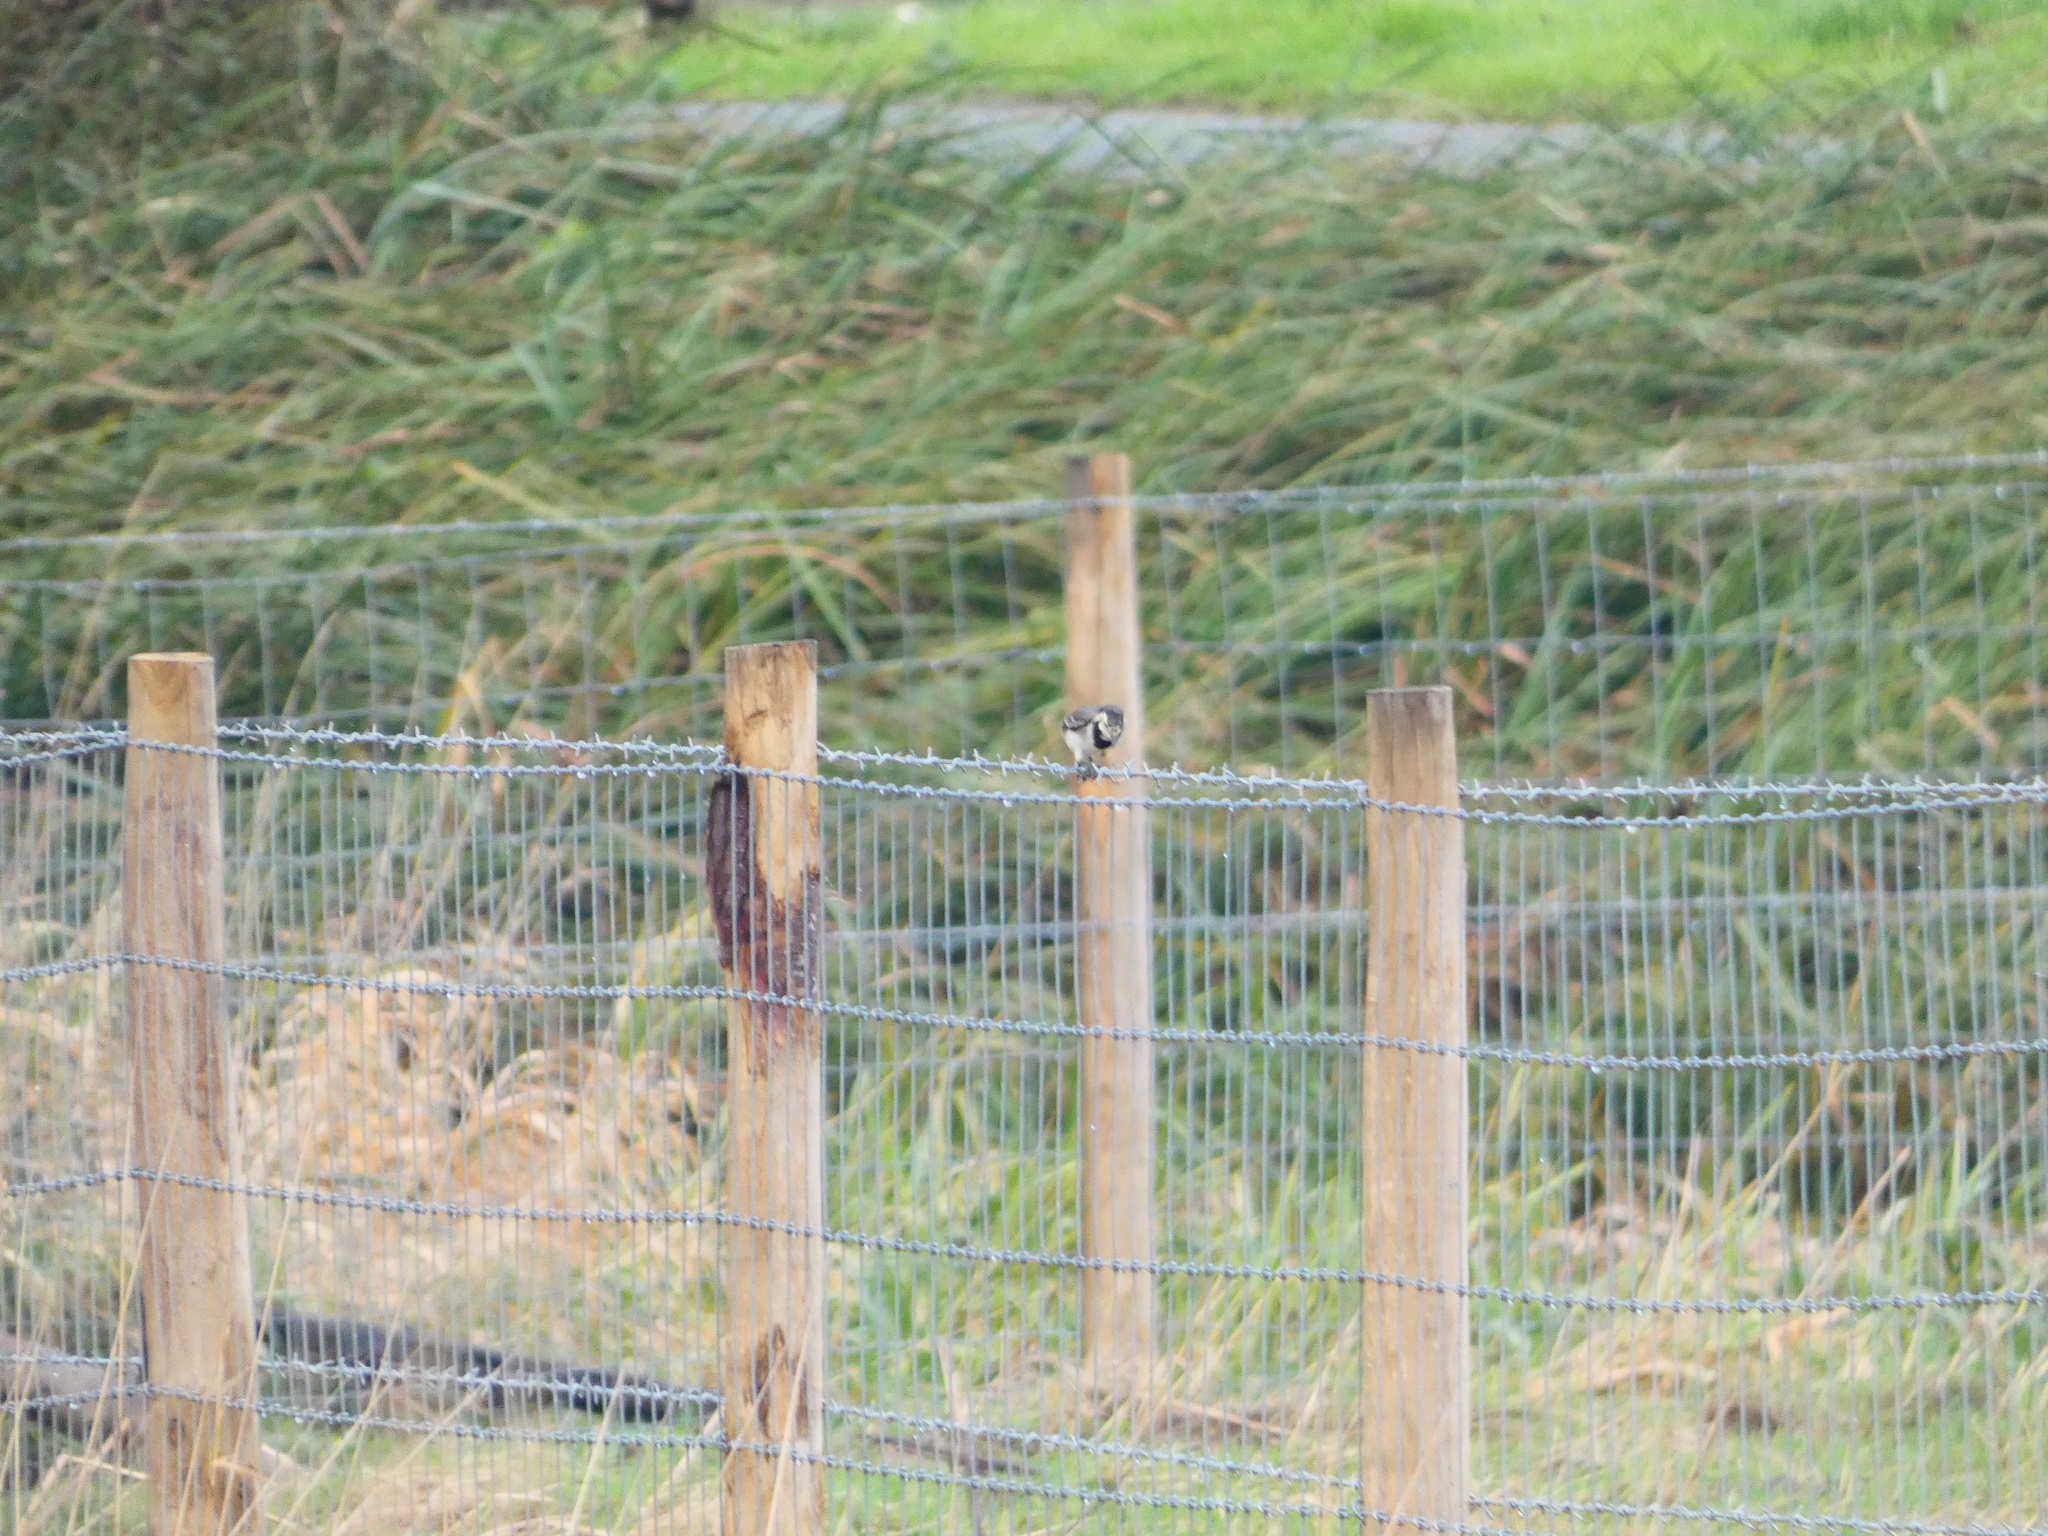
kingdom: Animalia
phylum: Chordata
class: Aves
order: Passeriformes
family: Motacillidae
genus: Motacilla
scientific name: Motacilla alba
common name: White wagtail
